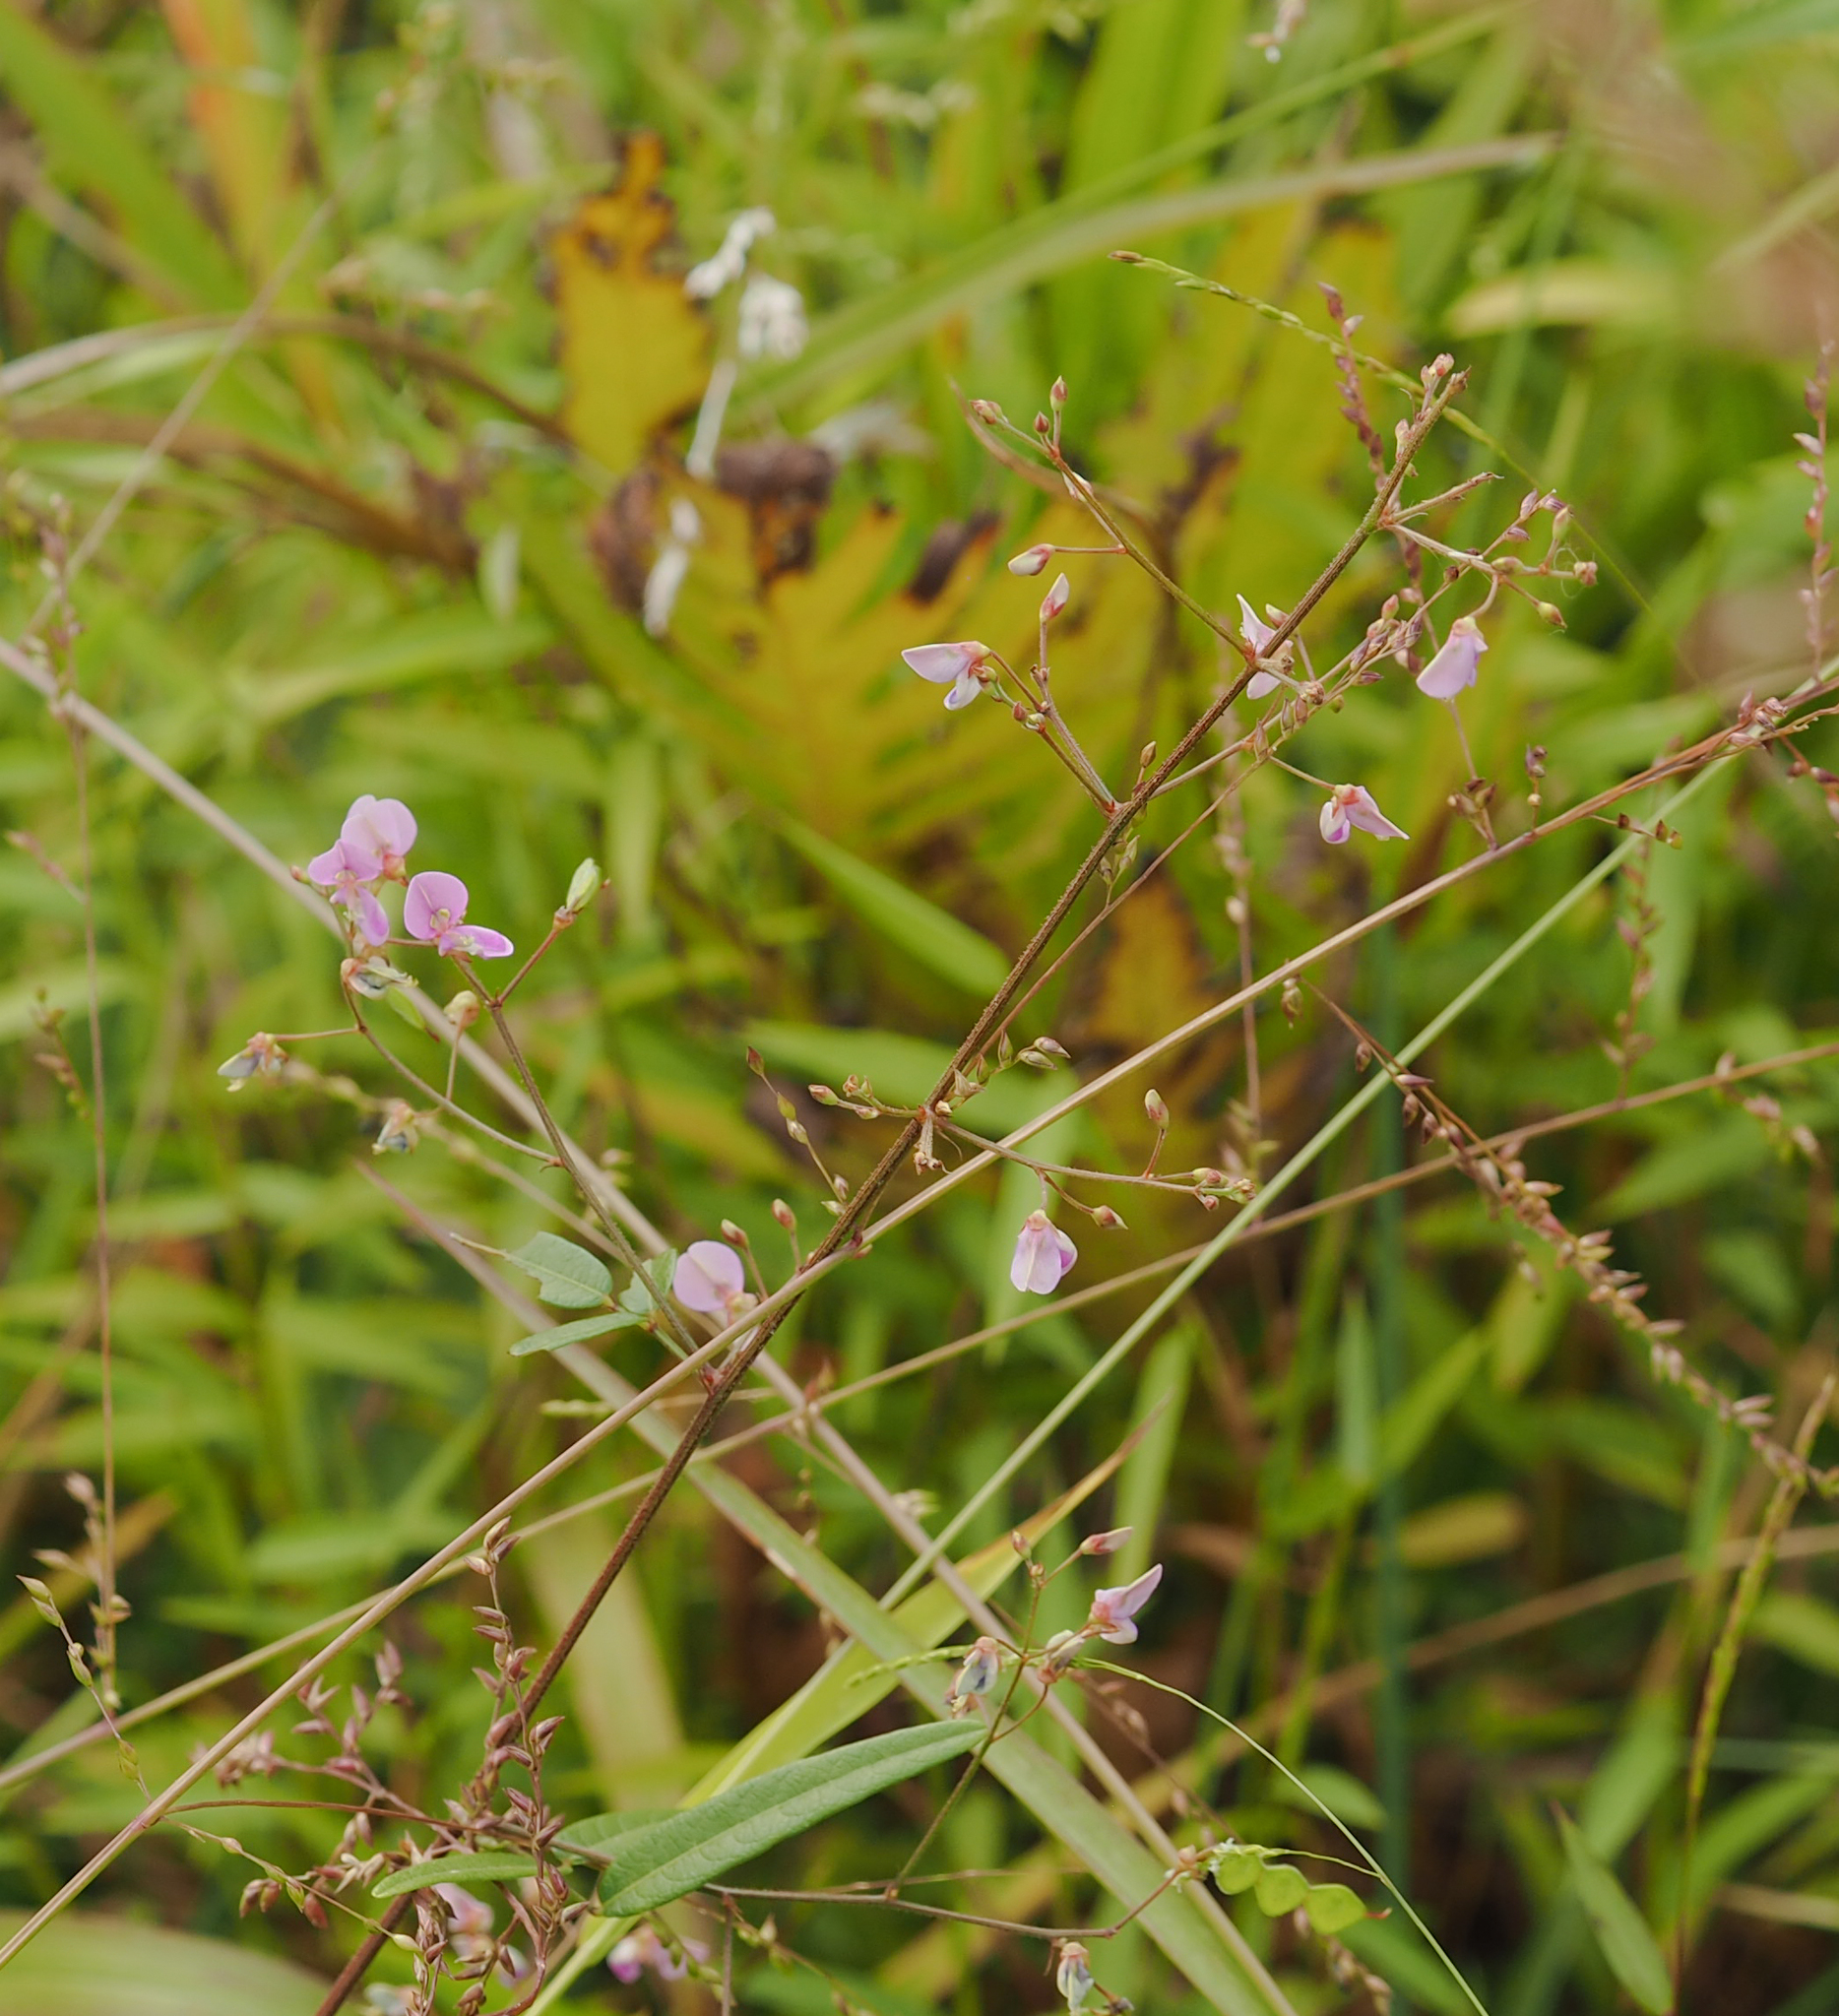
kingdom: Plantae
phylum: Tracheophyta
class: Magnoliopsida
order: Fabales
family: Fabaceae
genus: Desmodium
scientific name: Desmodium paniculatum
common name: Panicled tick-clover
